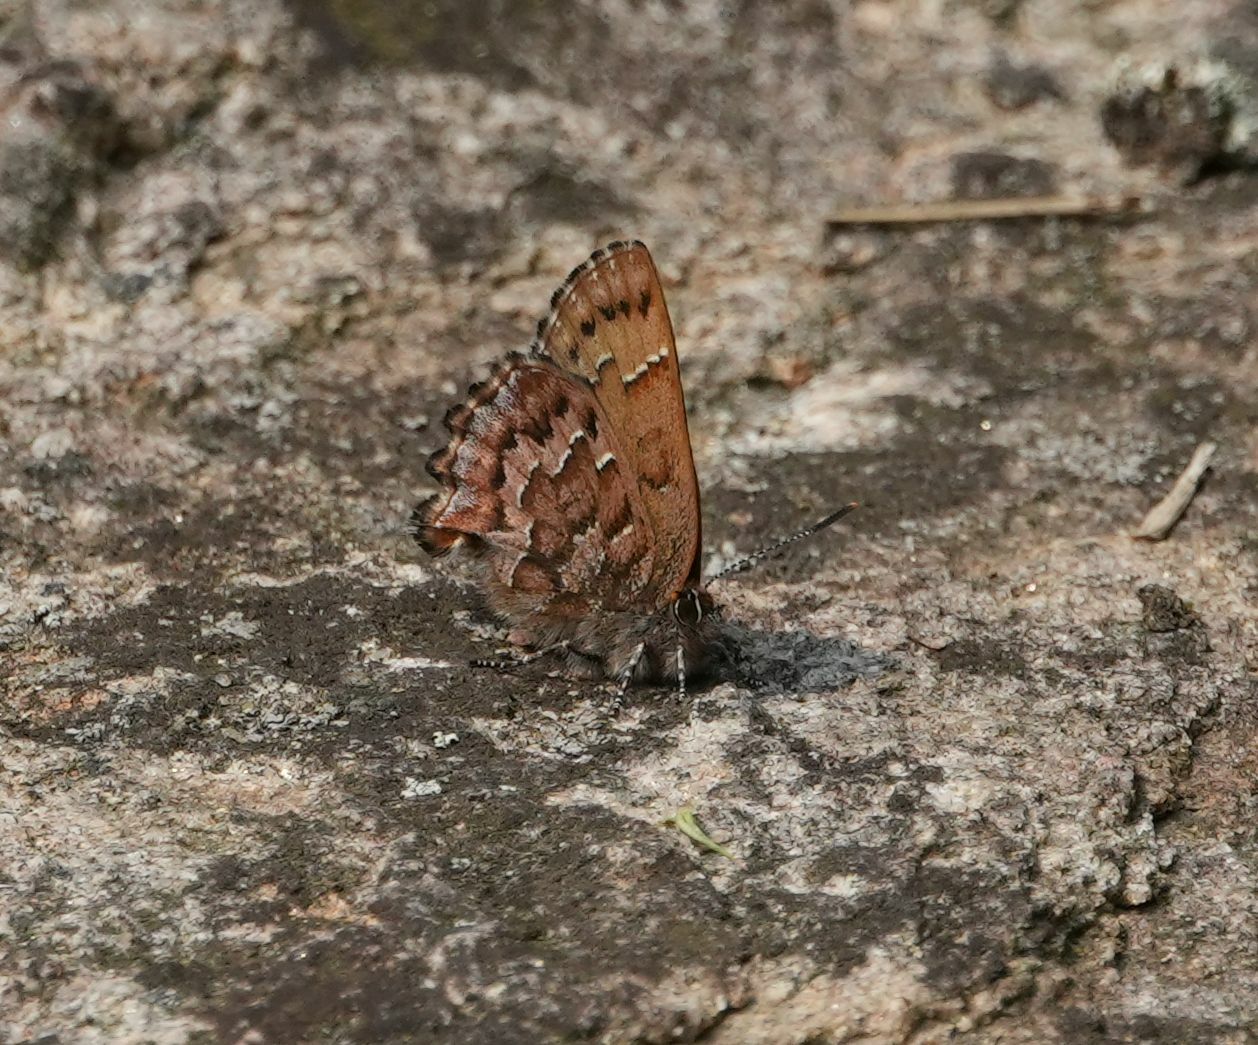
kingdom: Animalia
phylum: Arthropoda
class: Insecta
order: Lepidoptera
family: Lycaenidae
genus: Incisalia
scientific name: Incisalia niphon
